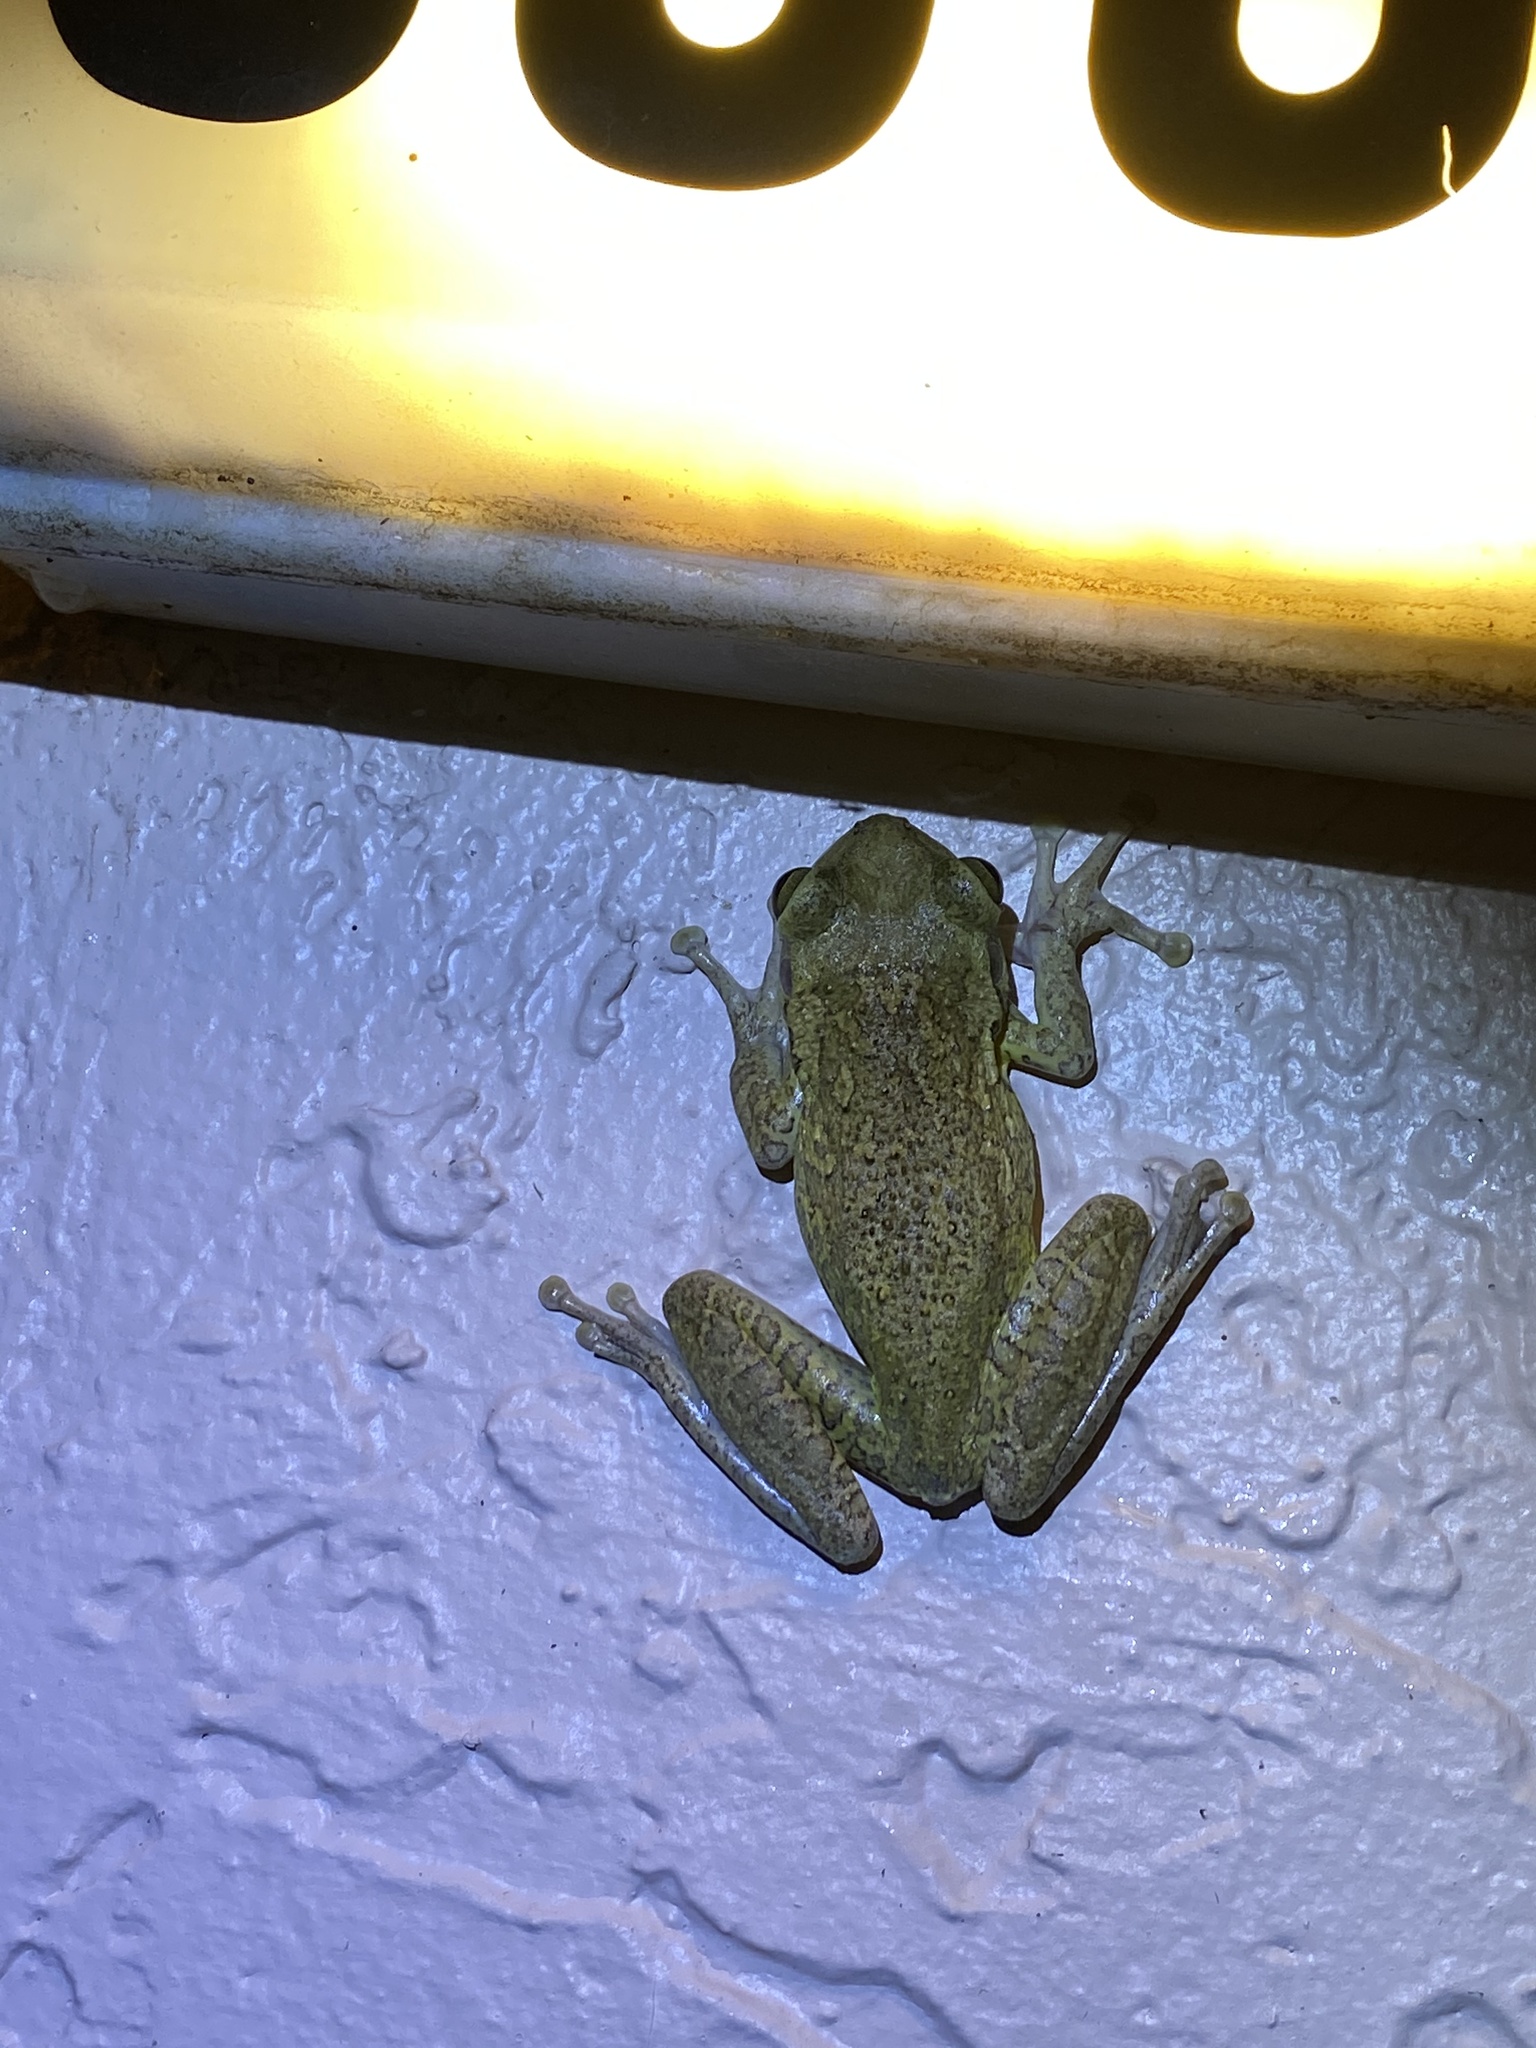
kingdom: Animalia
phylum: Chordata
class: Amphibia
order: Anura
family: Hylidae
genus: Osteopilus
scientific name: Osteopilus septentrionalis
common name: Cuban treefrog
